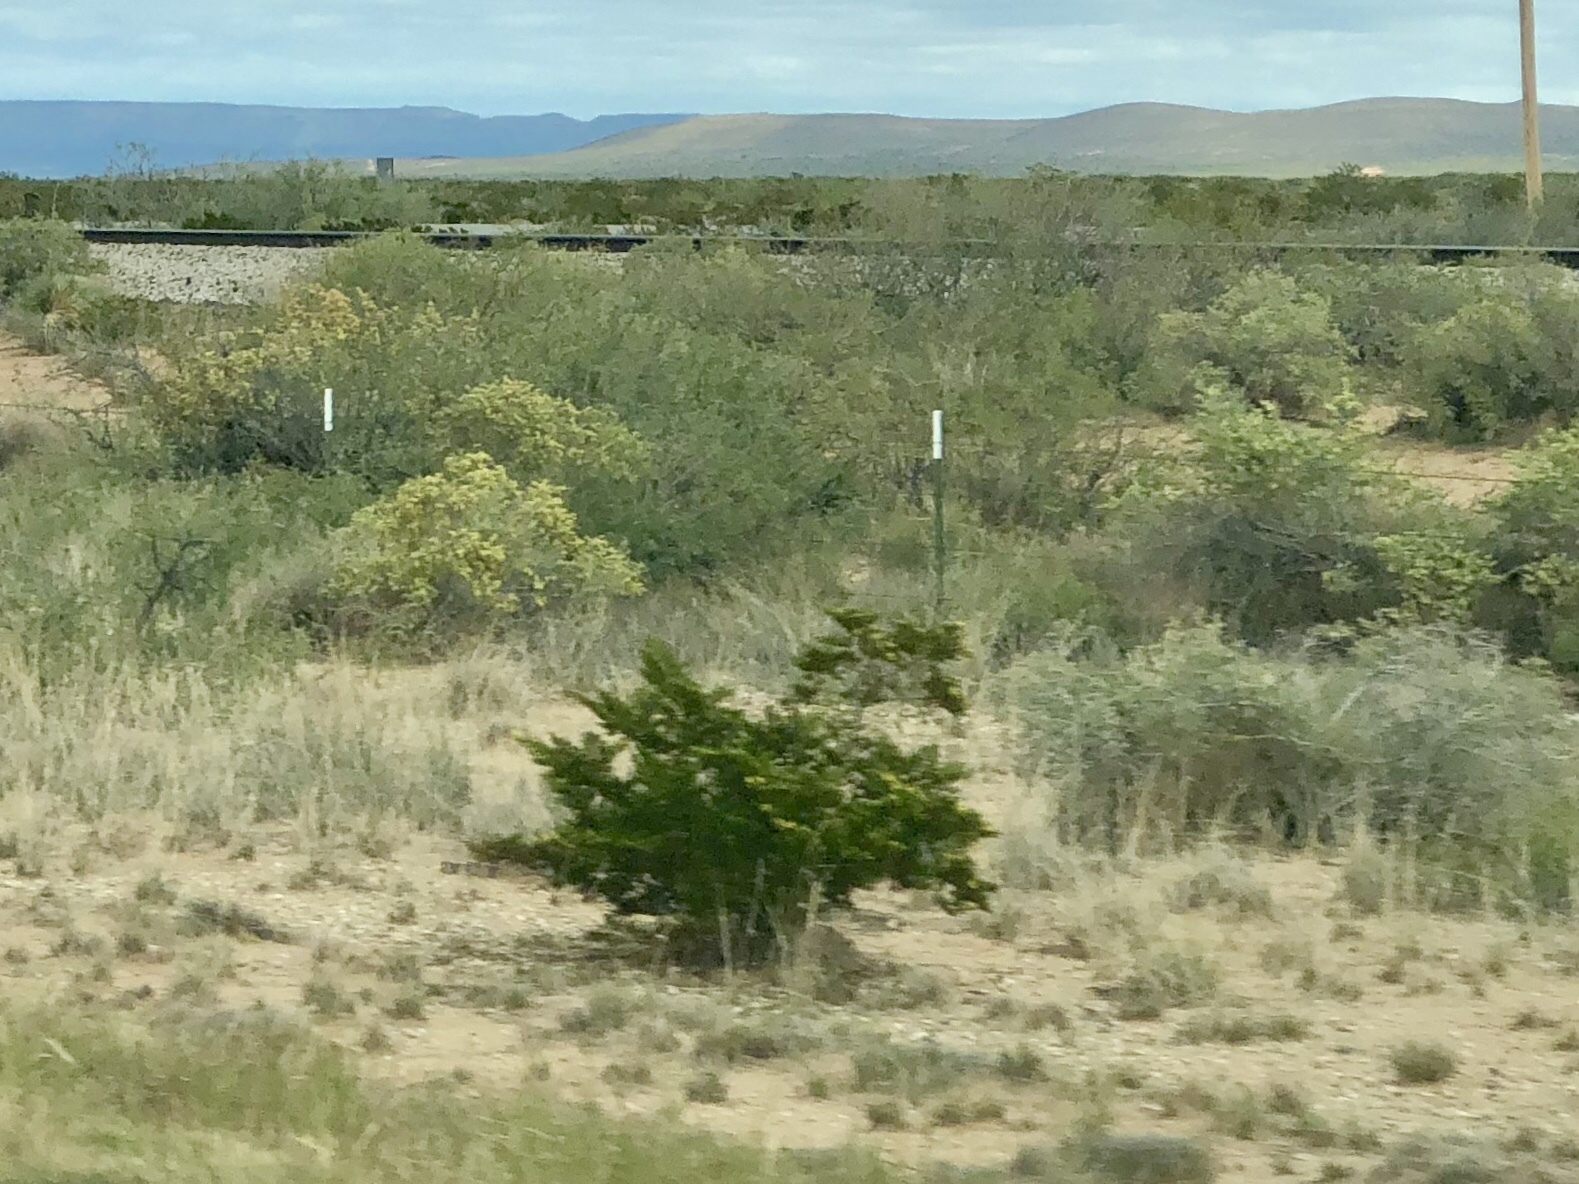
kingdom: Plantae
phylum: Tracheophyta
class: Magnoliopsida
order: Zygophyllales
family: Zygophyllaceae
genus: Larrea
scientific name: Larrea tridentata
